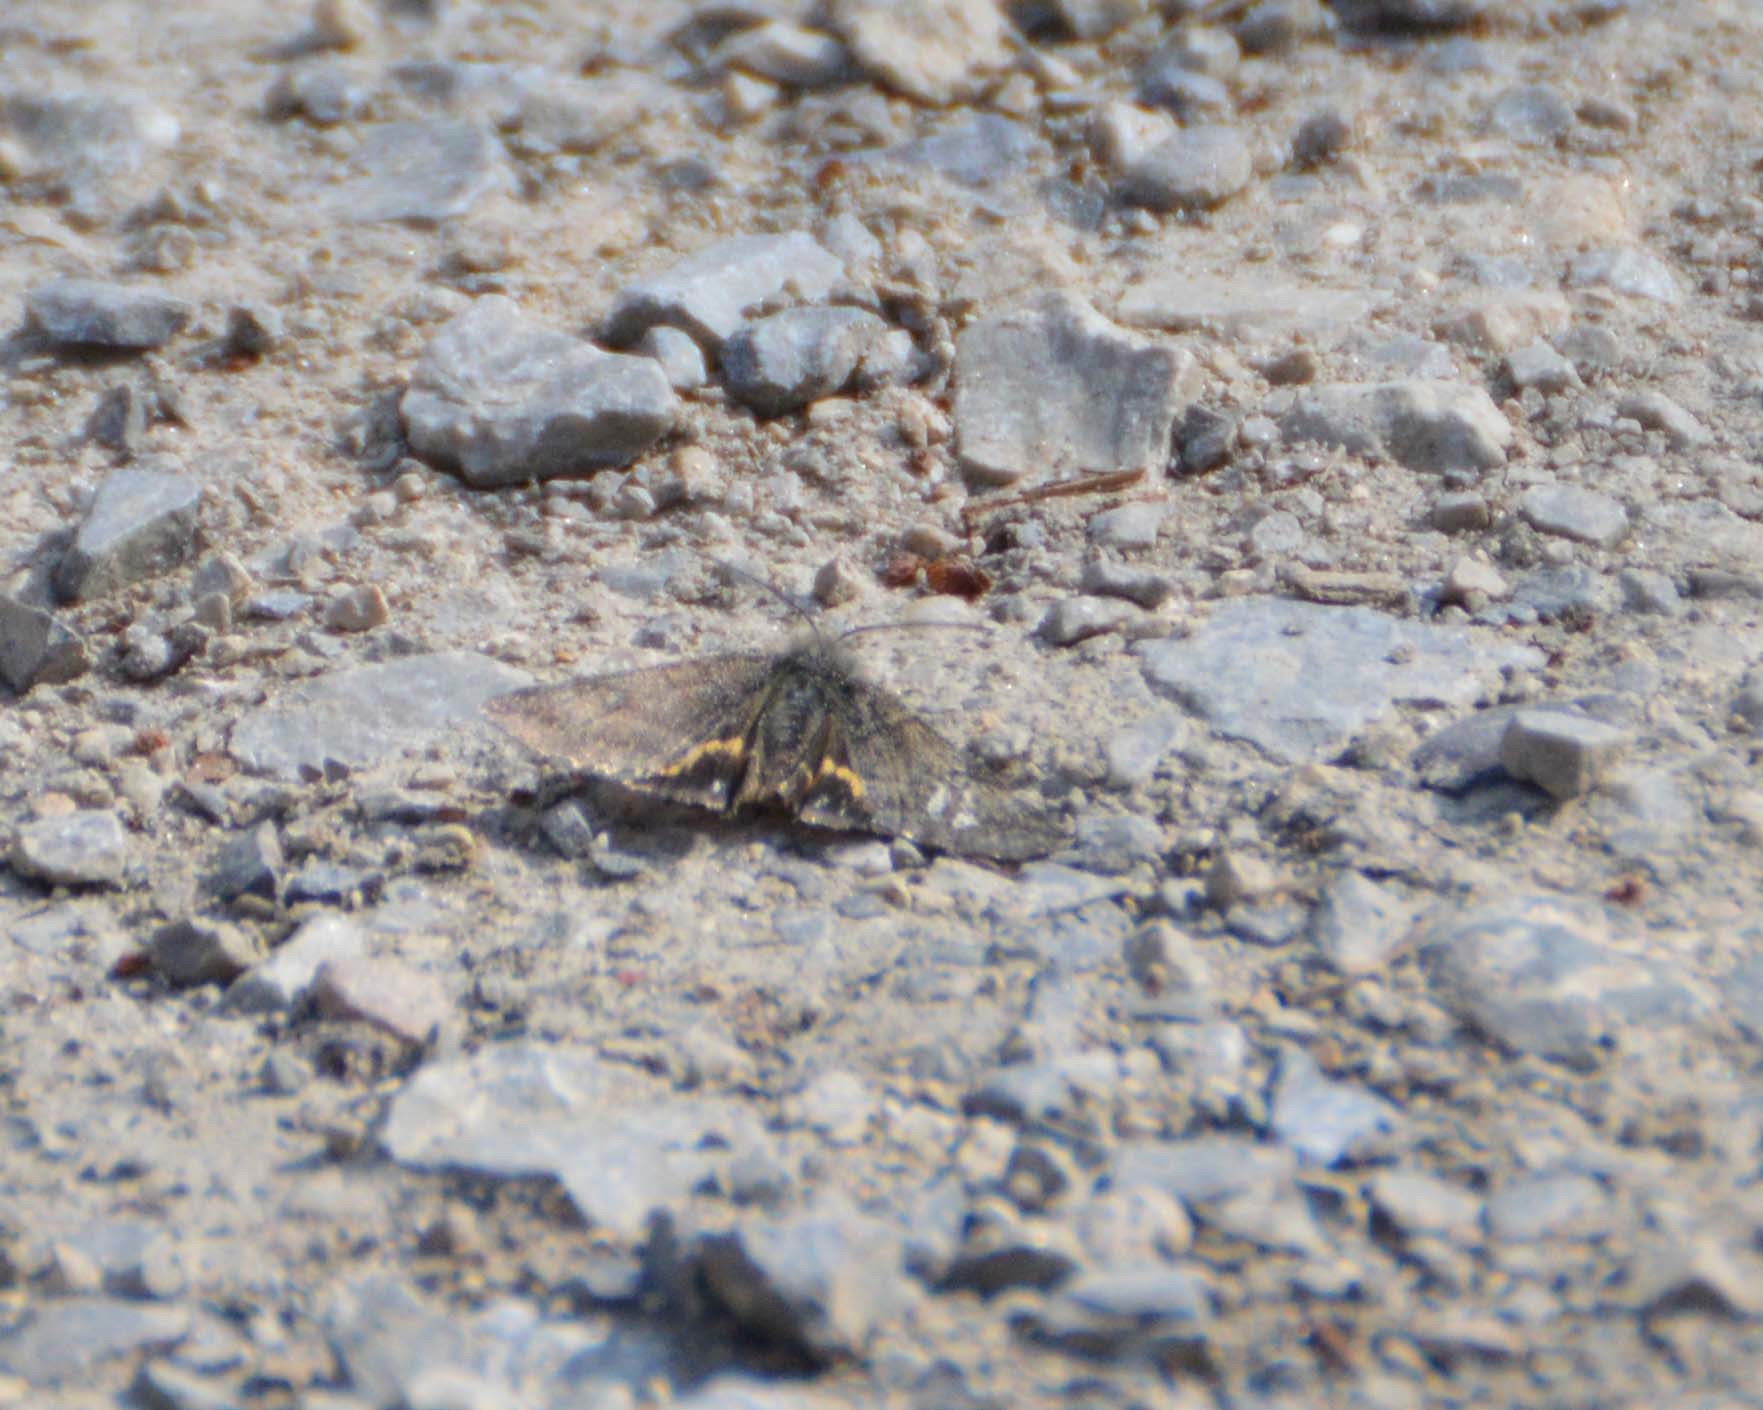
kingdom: Animalia
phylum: Arthropoda
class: Insecta
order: Lepidoptera
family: Geometridae
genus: Boudinotiana
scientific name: Boudinotiana puella
